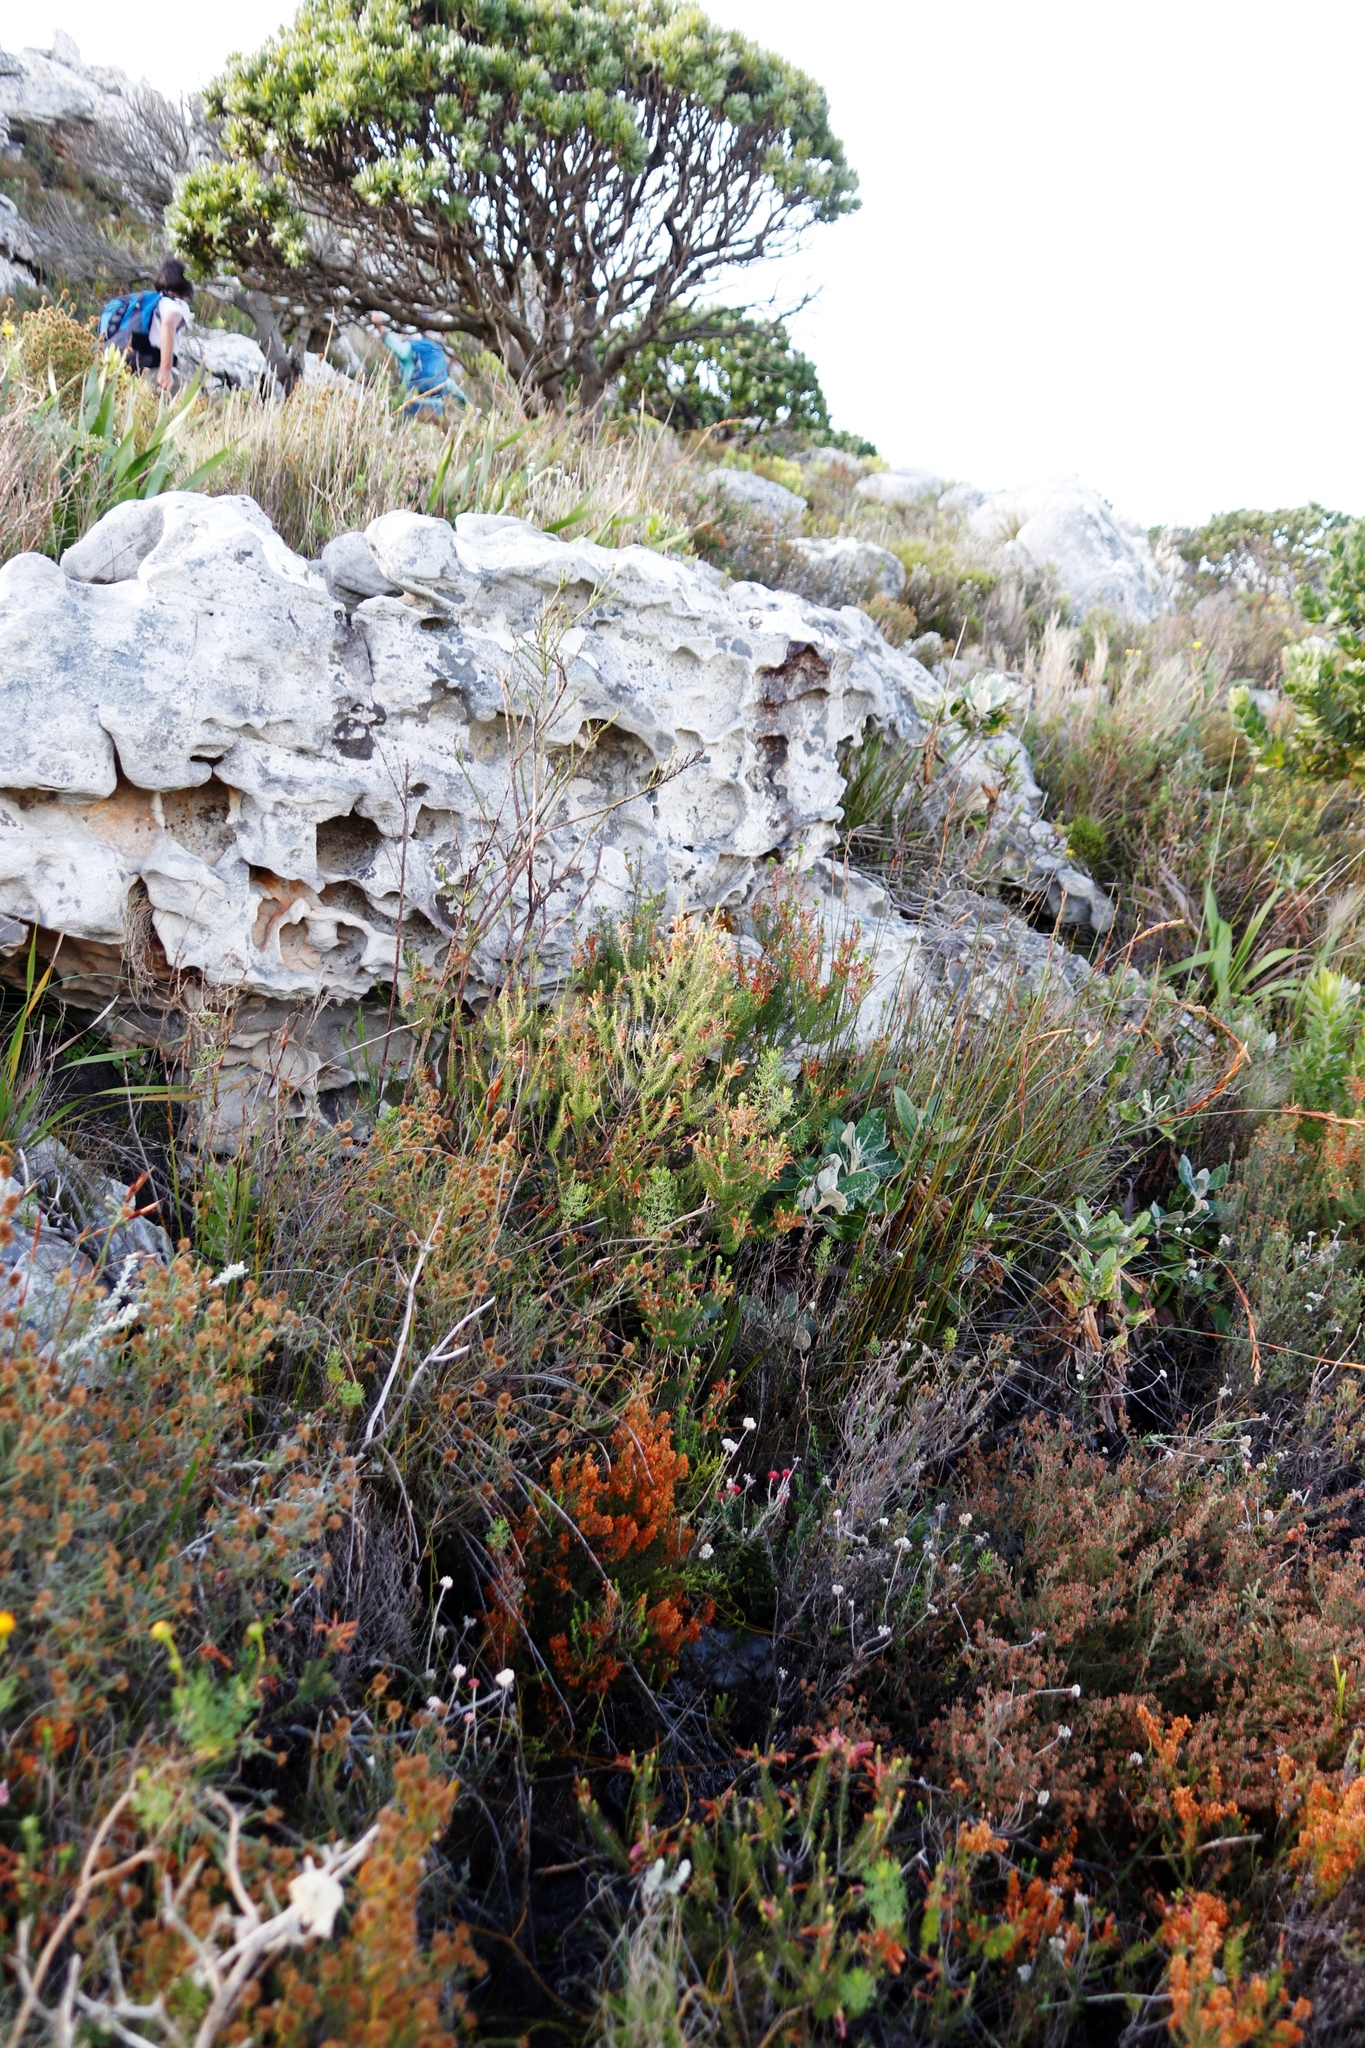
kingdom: Plantae
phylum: Tracheophyta
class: Magnoliopsida
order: Ericales
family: Ericaceae
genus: Erica
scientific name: Erica abietina
